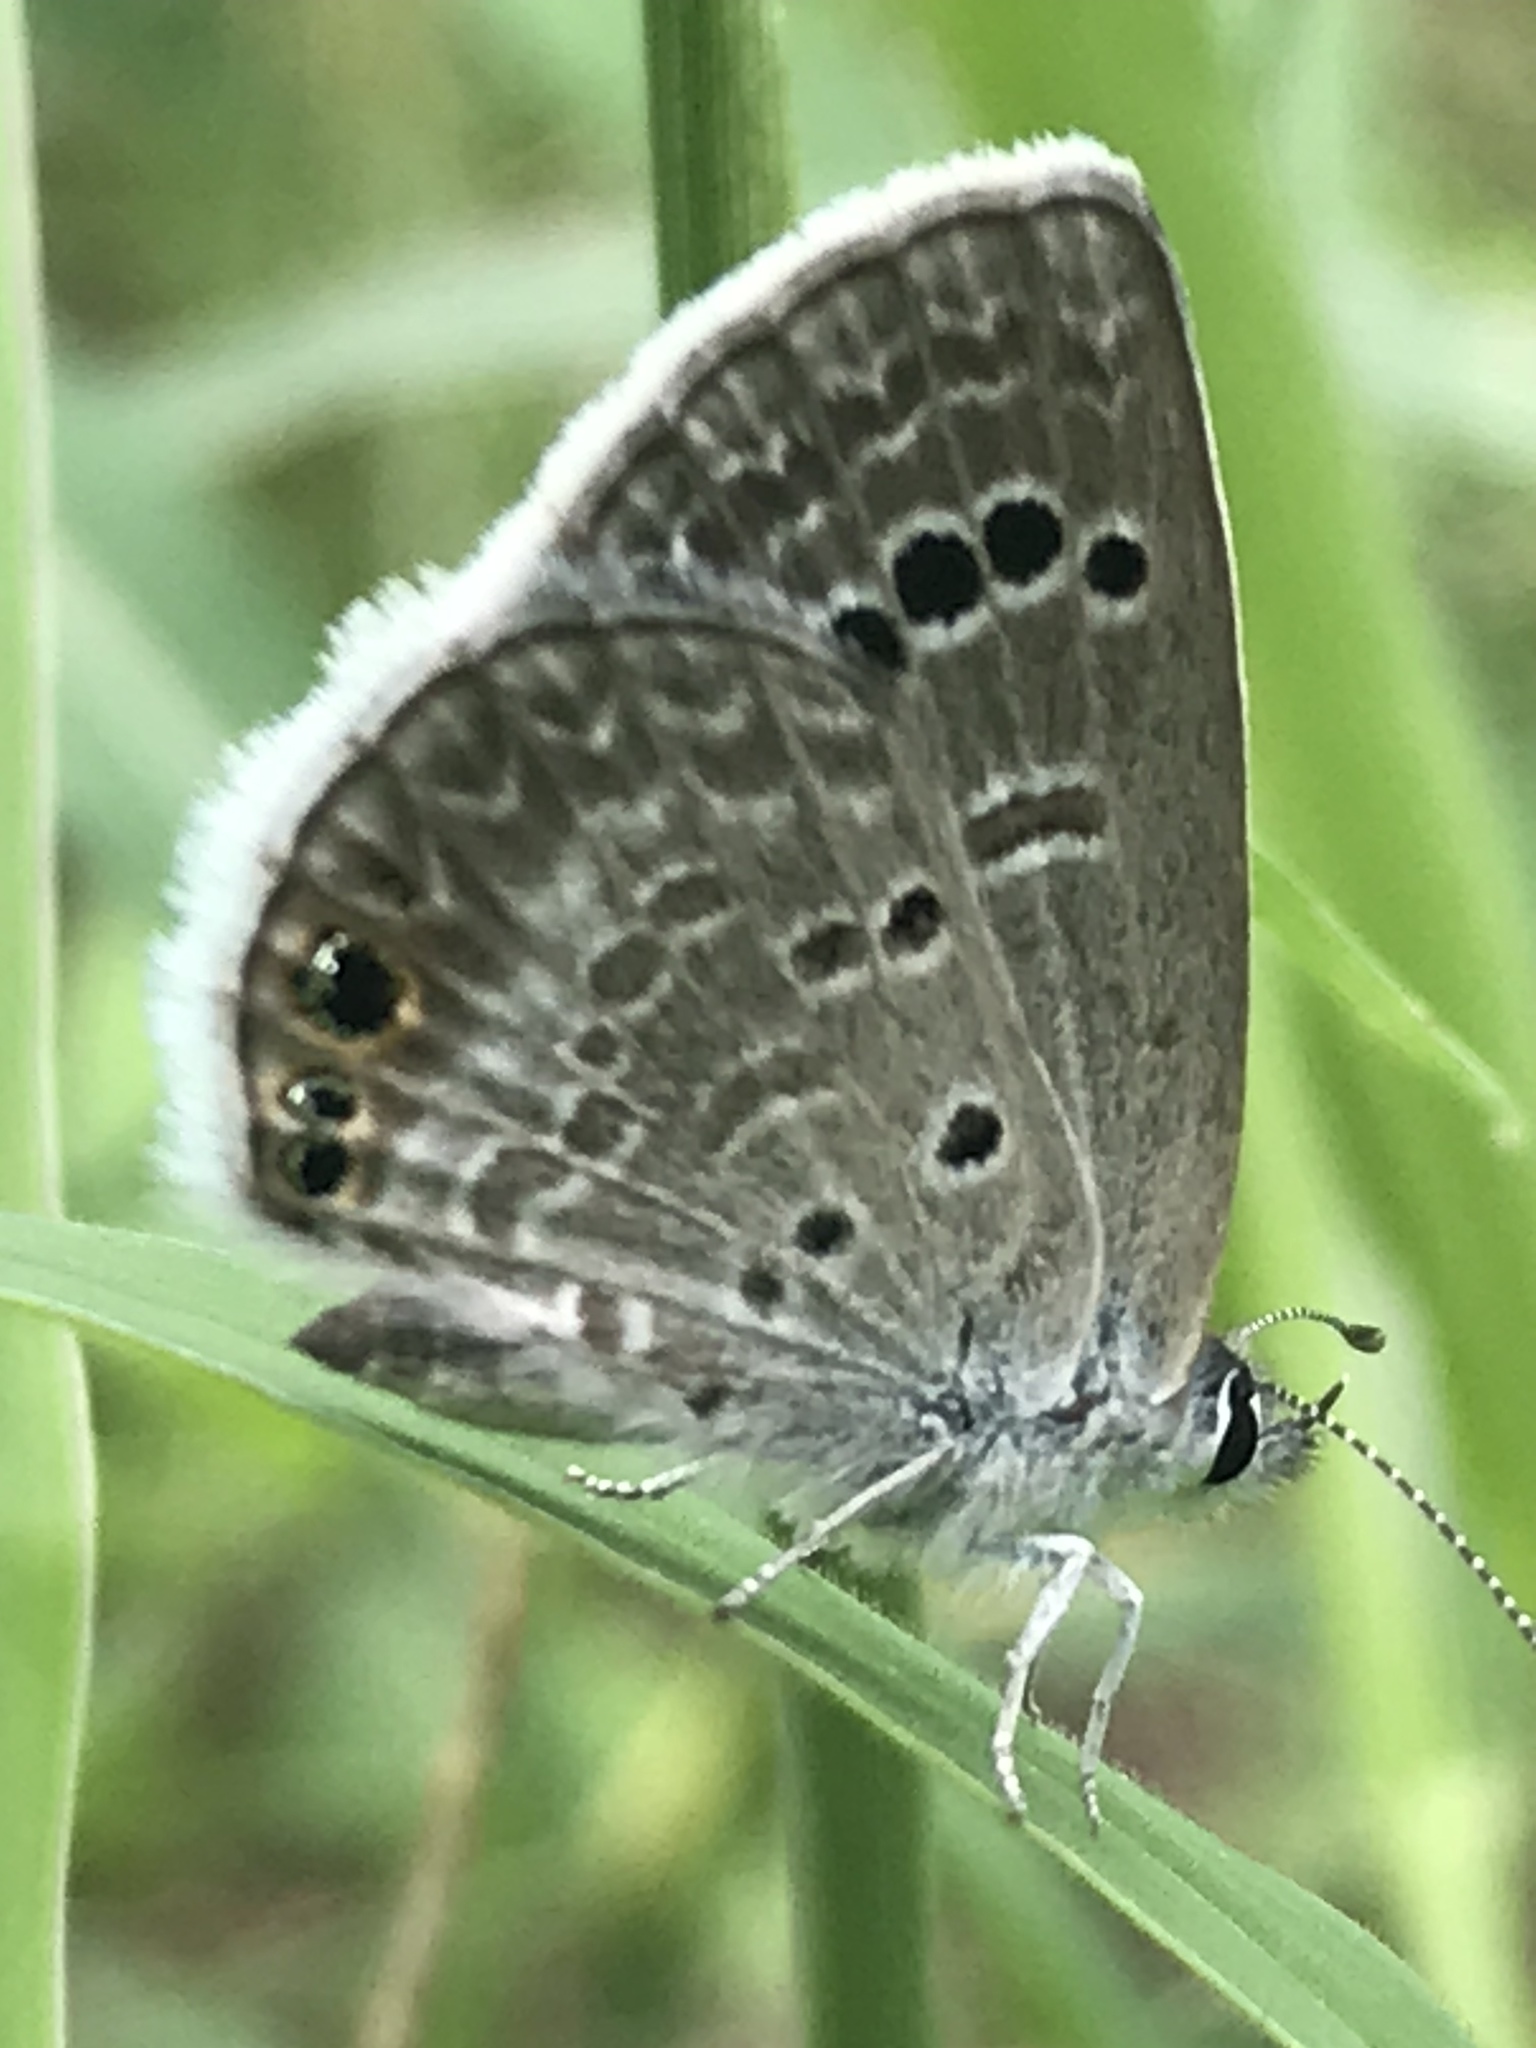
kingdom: Animalia
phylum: Arthropoda
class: Insecta
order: Lepidoptera
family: Lycaenidae
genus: Echinargus
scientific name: Echinargus isola
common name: Reakirt's blue
